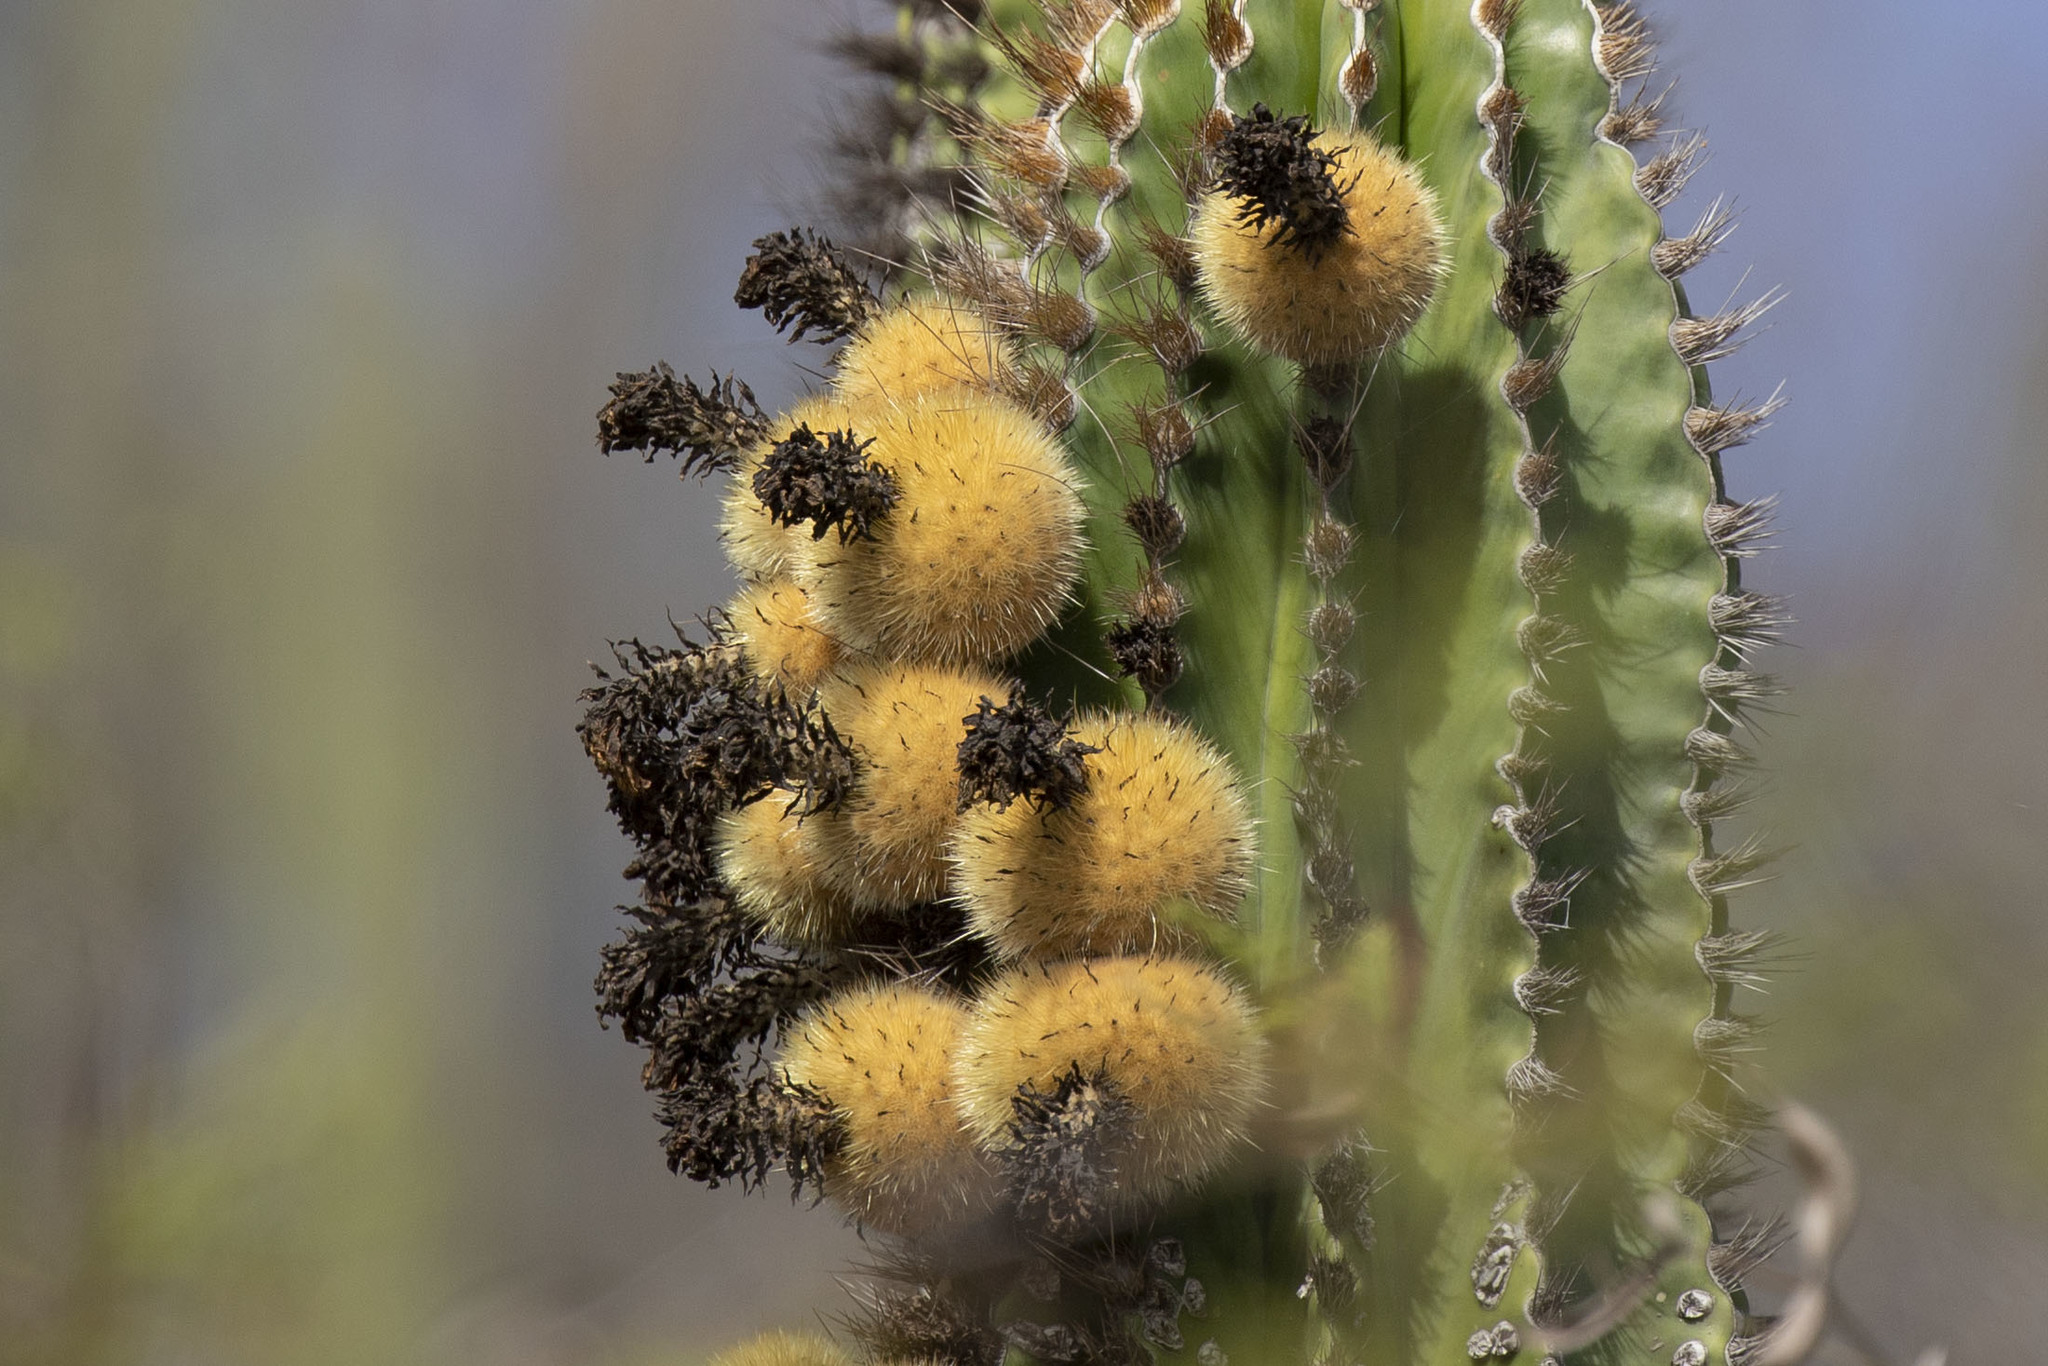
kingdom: Plantae
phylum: Tracheophyta
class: Magnoliopsida
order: Caryophyllales
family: Cactaceae
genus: Pachycereus
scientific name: Pachycereus pecten-aboriginum
